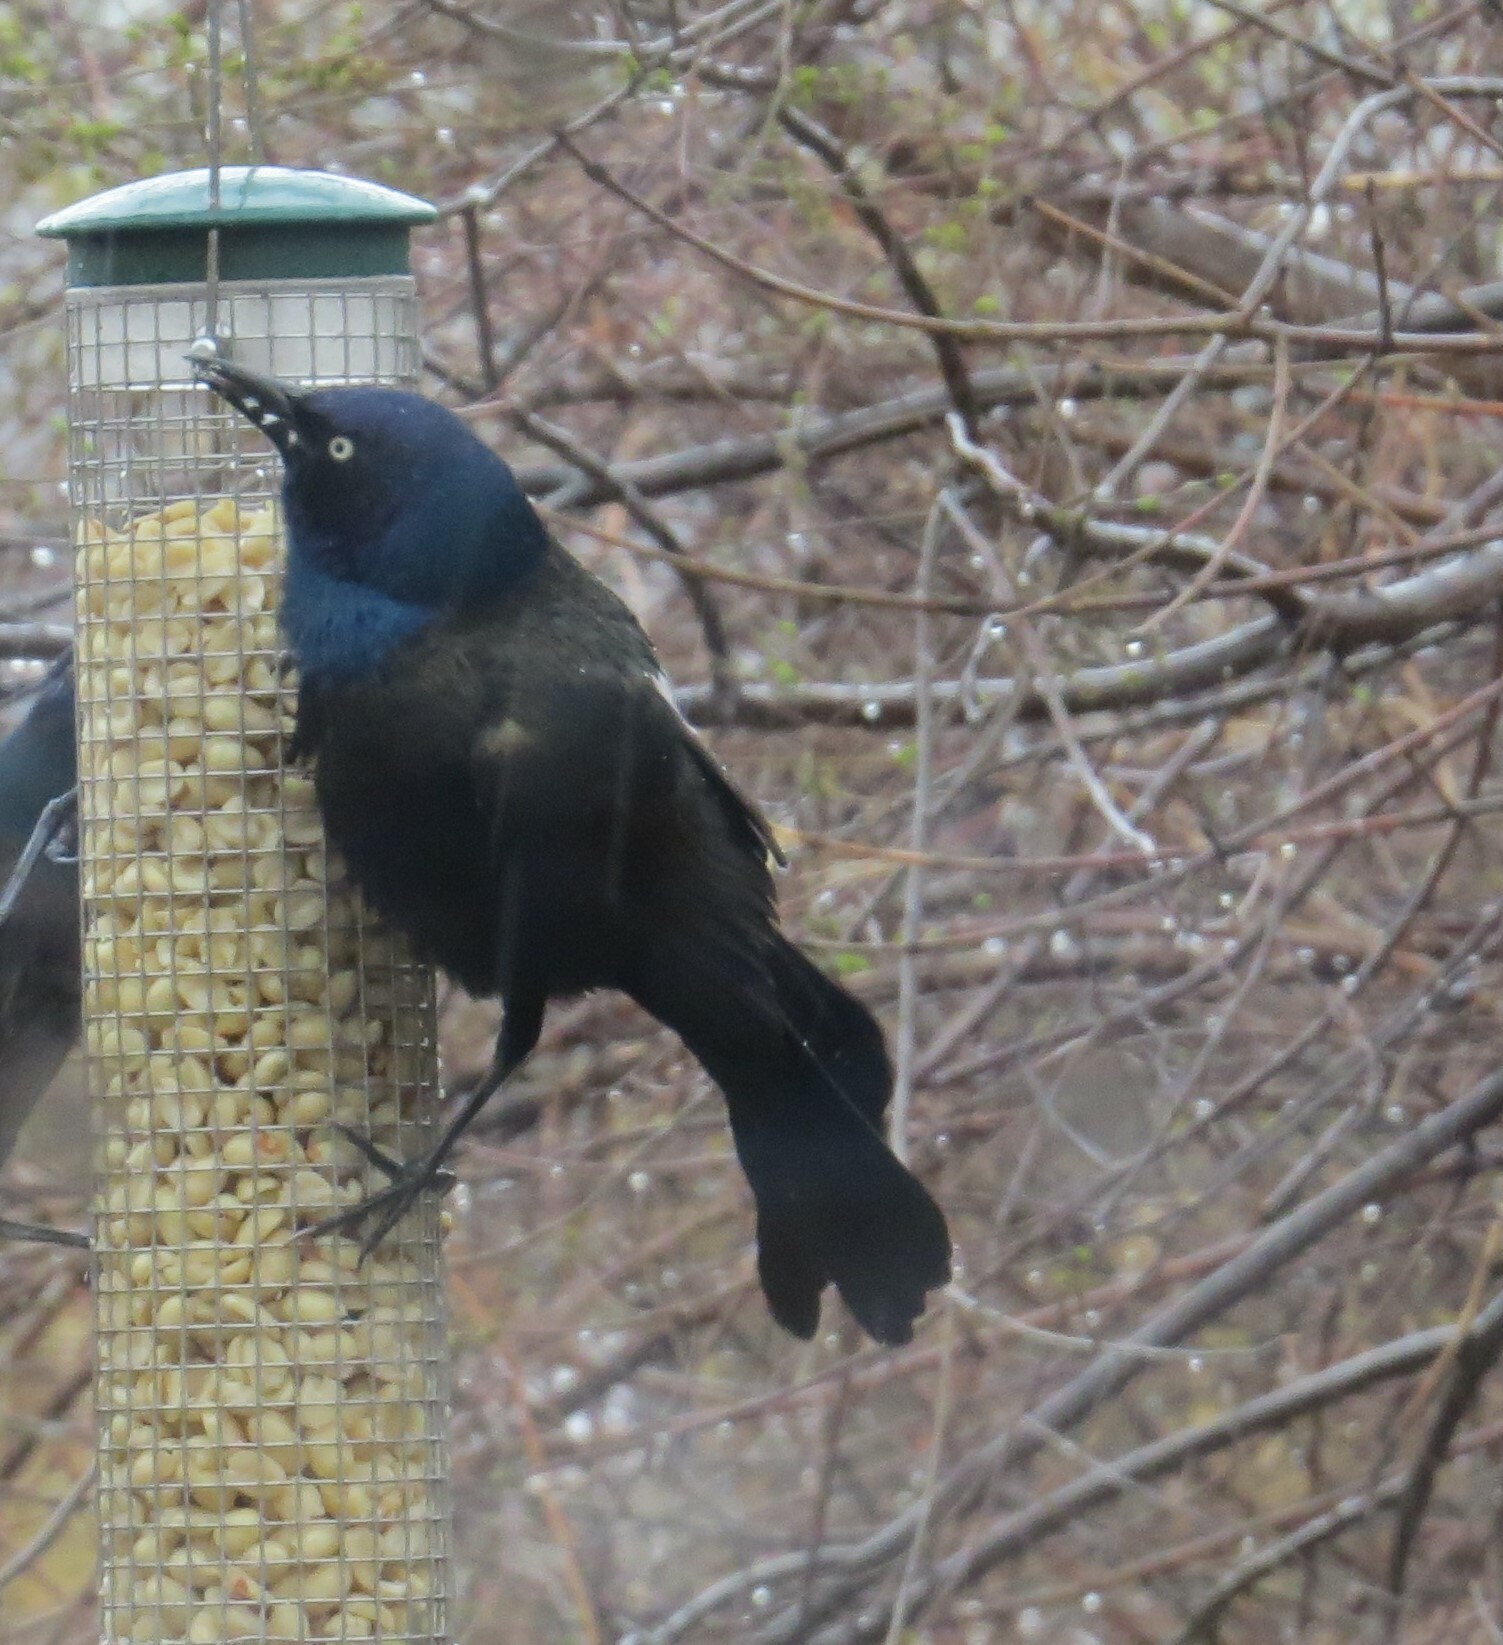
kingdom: Animalia
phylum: Chordata
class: Aves
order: Passeriformes
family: Icteridae
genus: Quiscalus
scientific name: Quiscalus quiscula
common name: Common grackle
